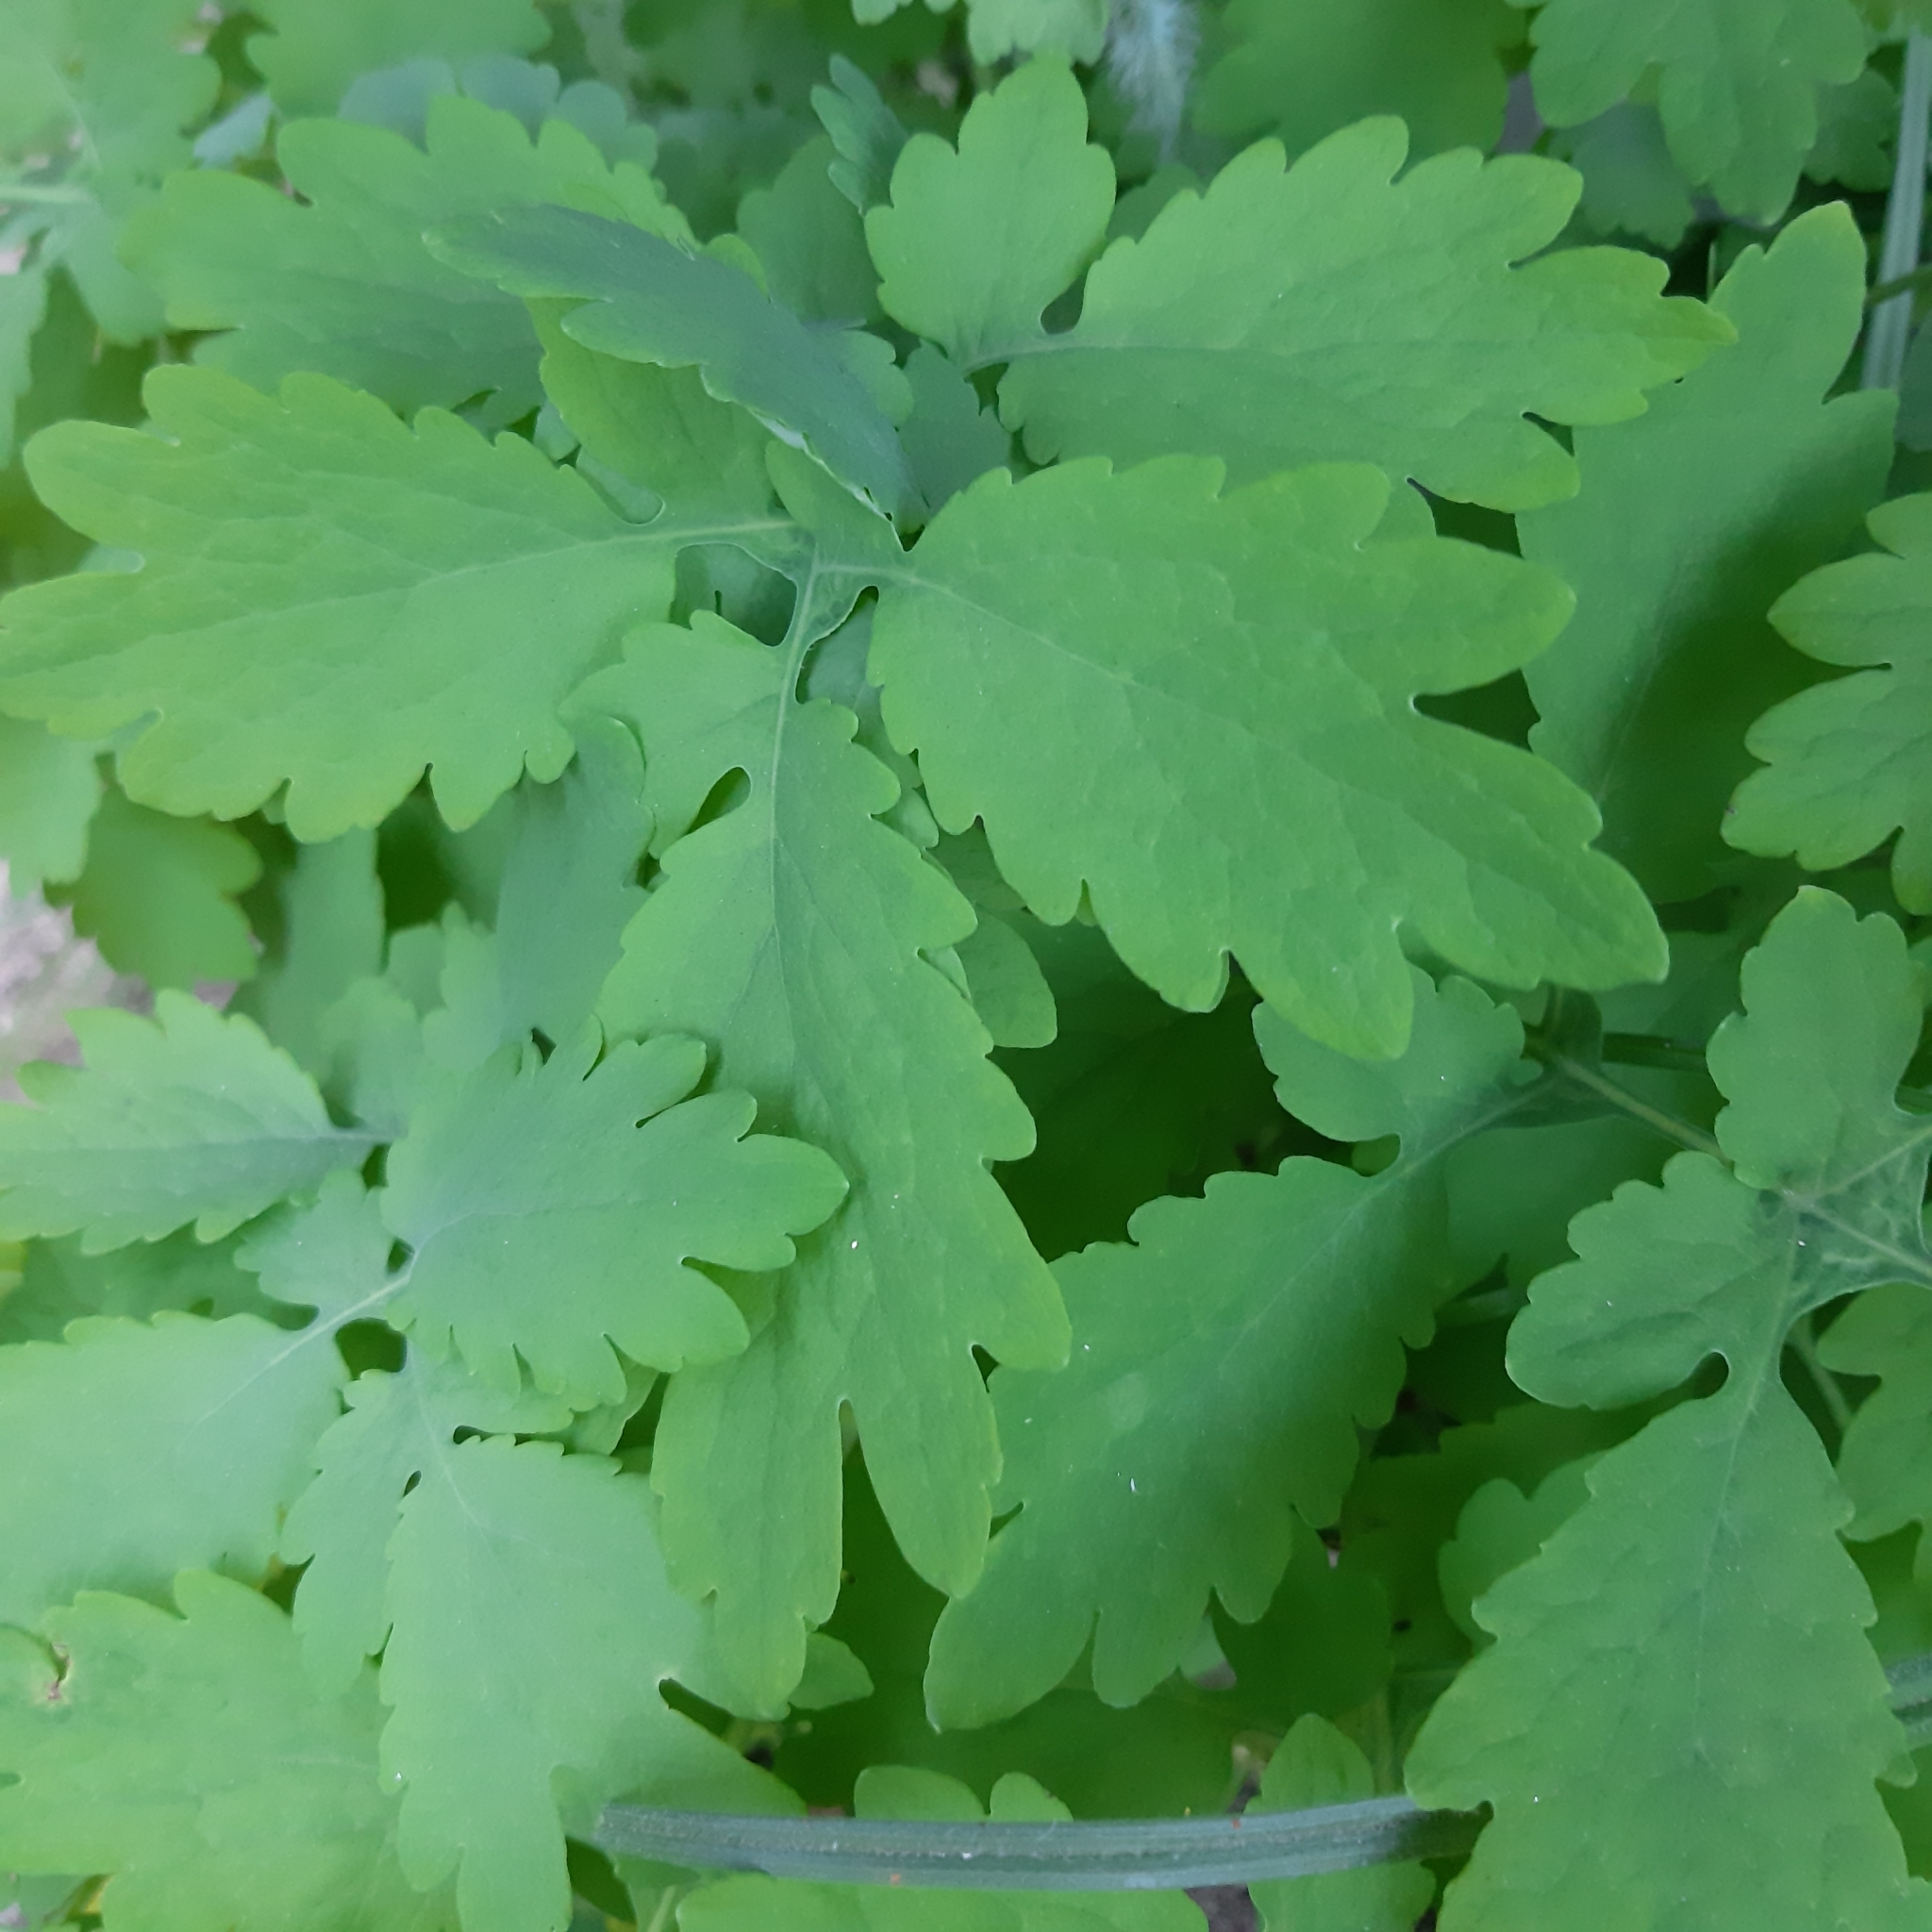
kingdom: Plantae
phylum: Tracheophyta
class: Magnoliopsida
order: Ranunculales
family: Papaveraceae
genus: Chelidonium
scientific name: Chelidonium majus
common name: Greater celandine
